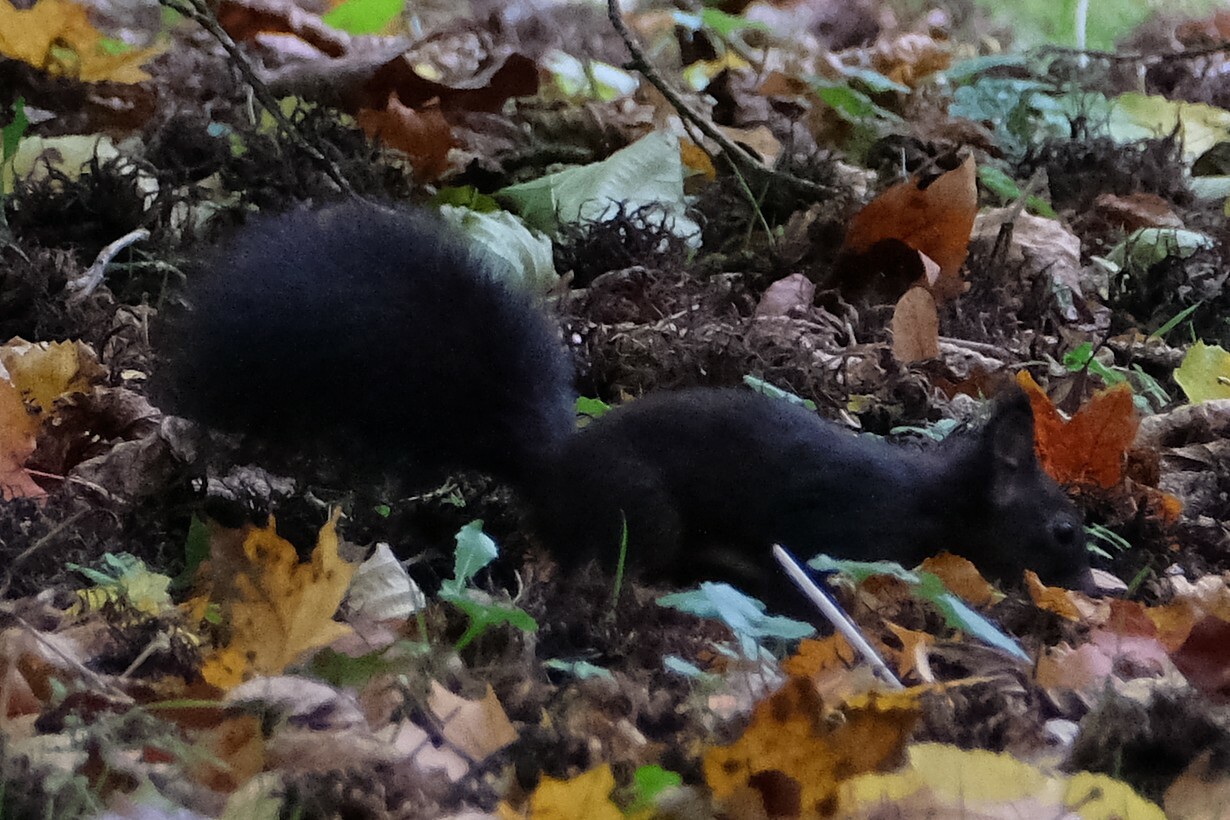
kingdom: Animalia
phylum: Chordata
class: Mammalia
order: Rodentia
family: Sciuridae
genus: Sciurus
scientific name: Sciurus vulgaris
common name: Eurasian red squirrel
